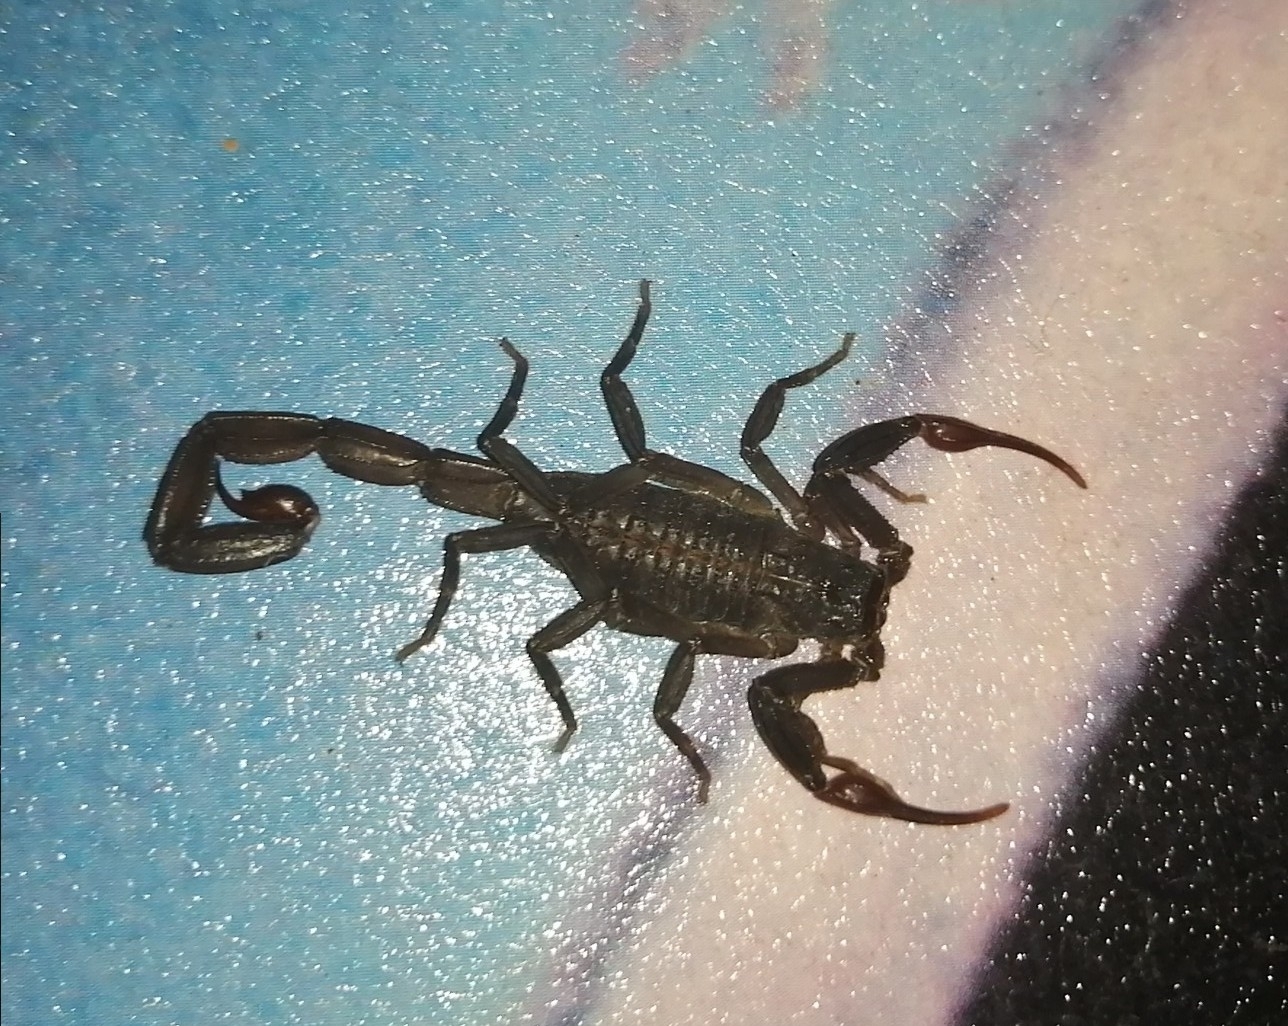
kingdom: Animalia
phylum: Arthropoda
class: Arachnida
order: Scorpiones
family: Buthidae
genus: Centruroides
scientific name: Centruroides gracilis
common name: Scorpions
